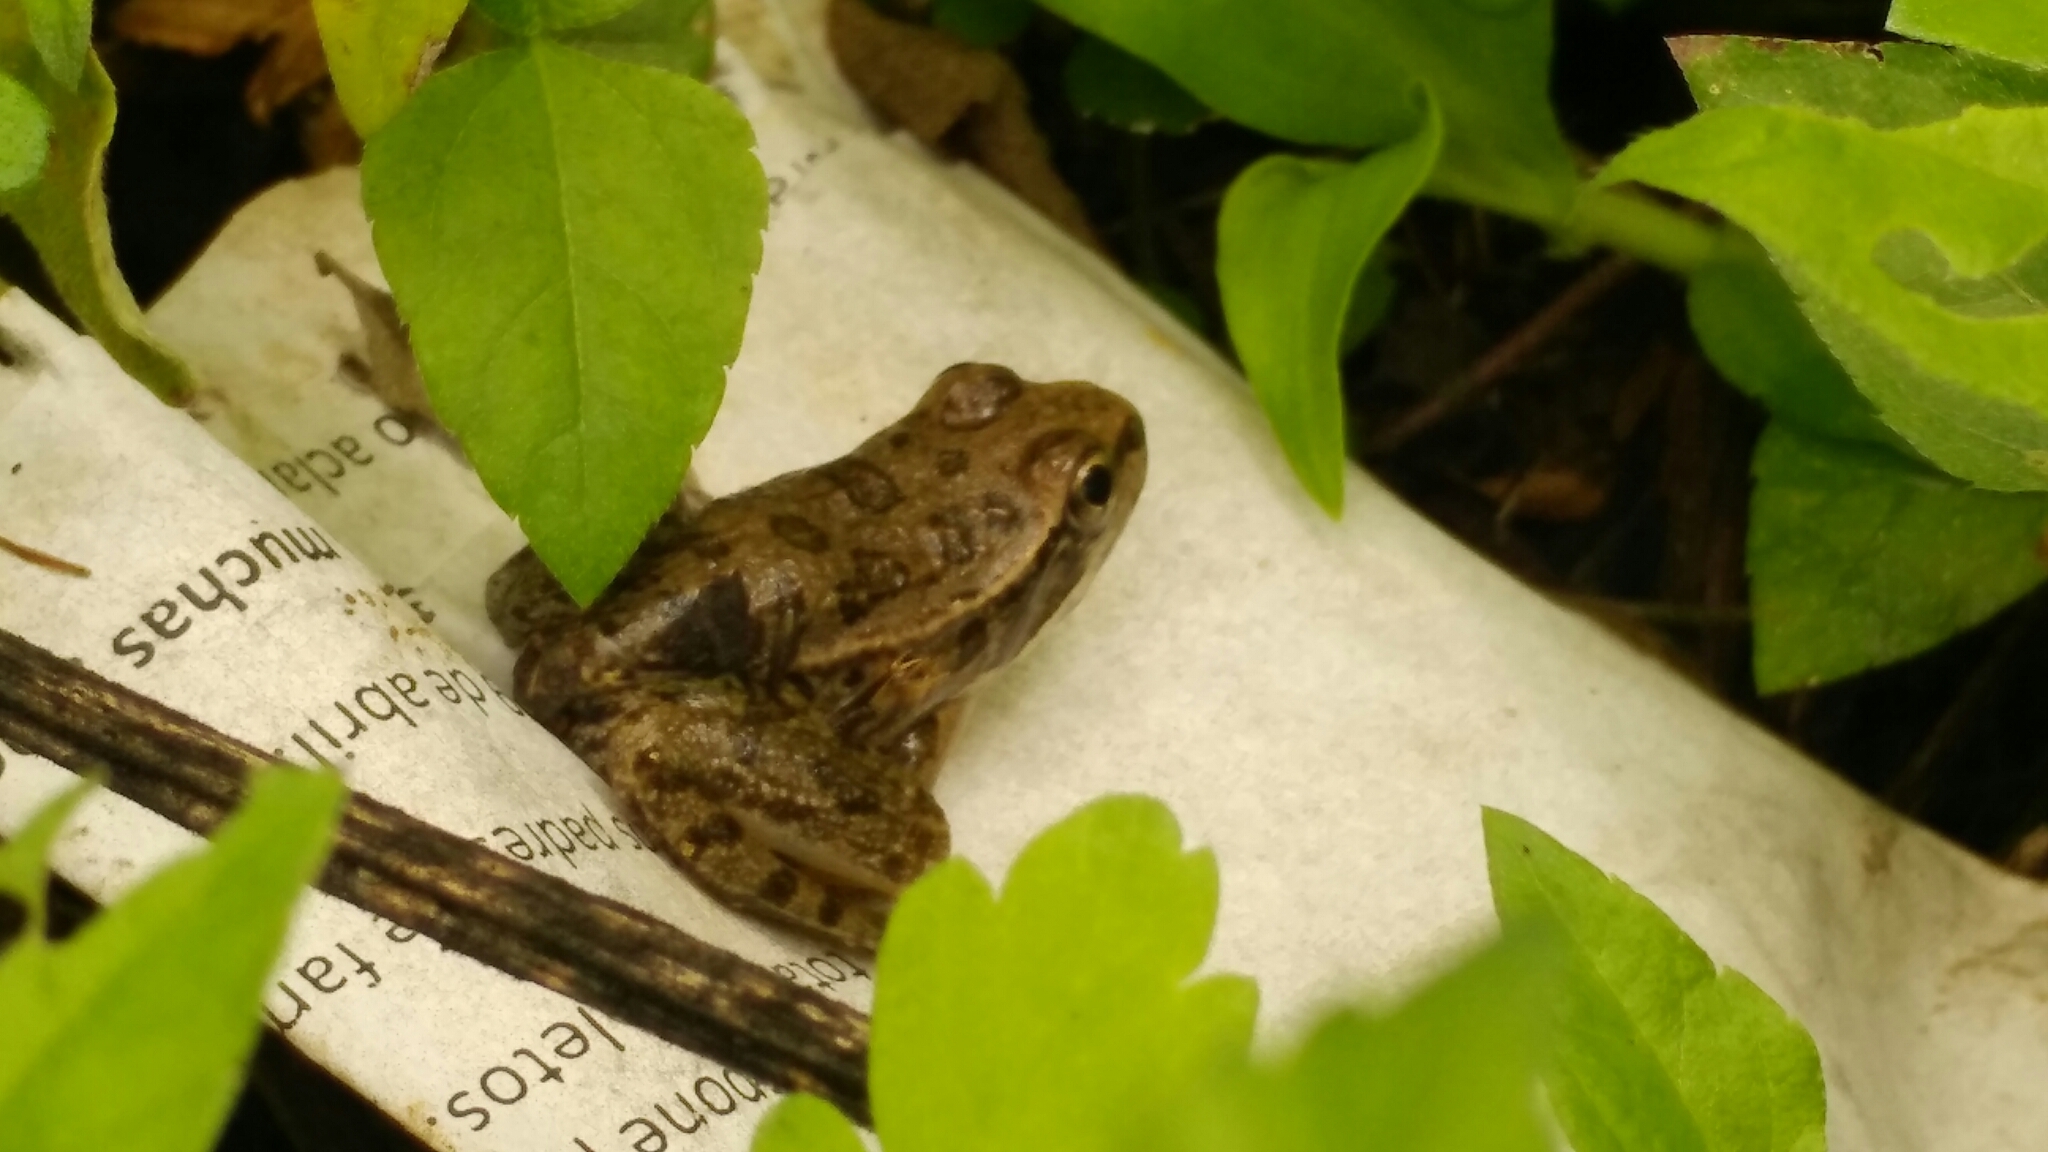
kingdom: Animalia
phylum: Chordata
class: Amphibia
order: Anura
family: Ranidae
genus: Lithobates
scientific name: Lithobates berlandieri
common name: Rio grande leopard frog
